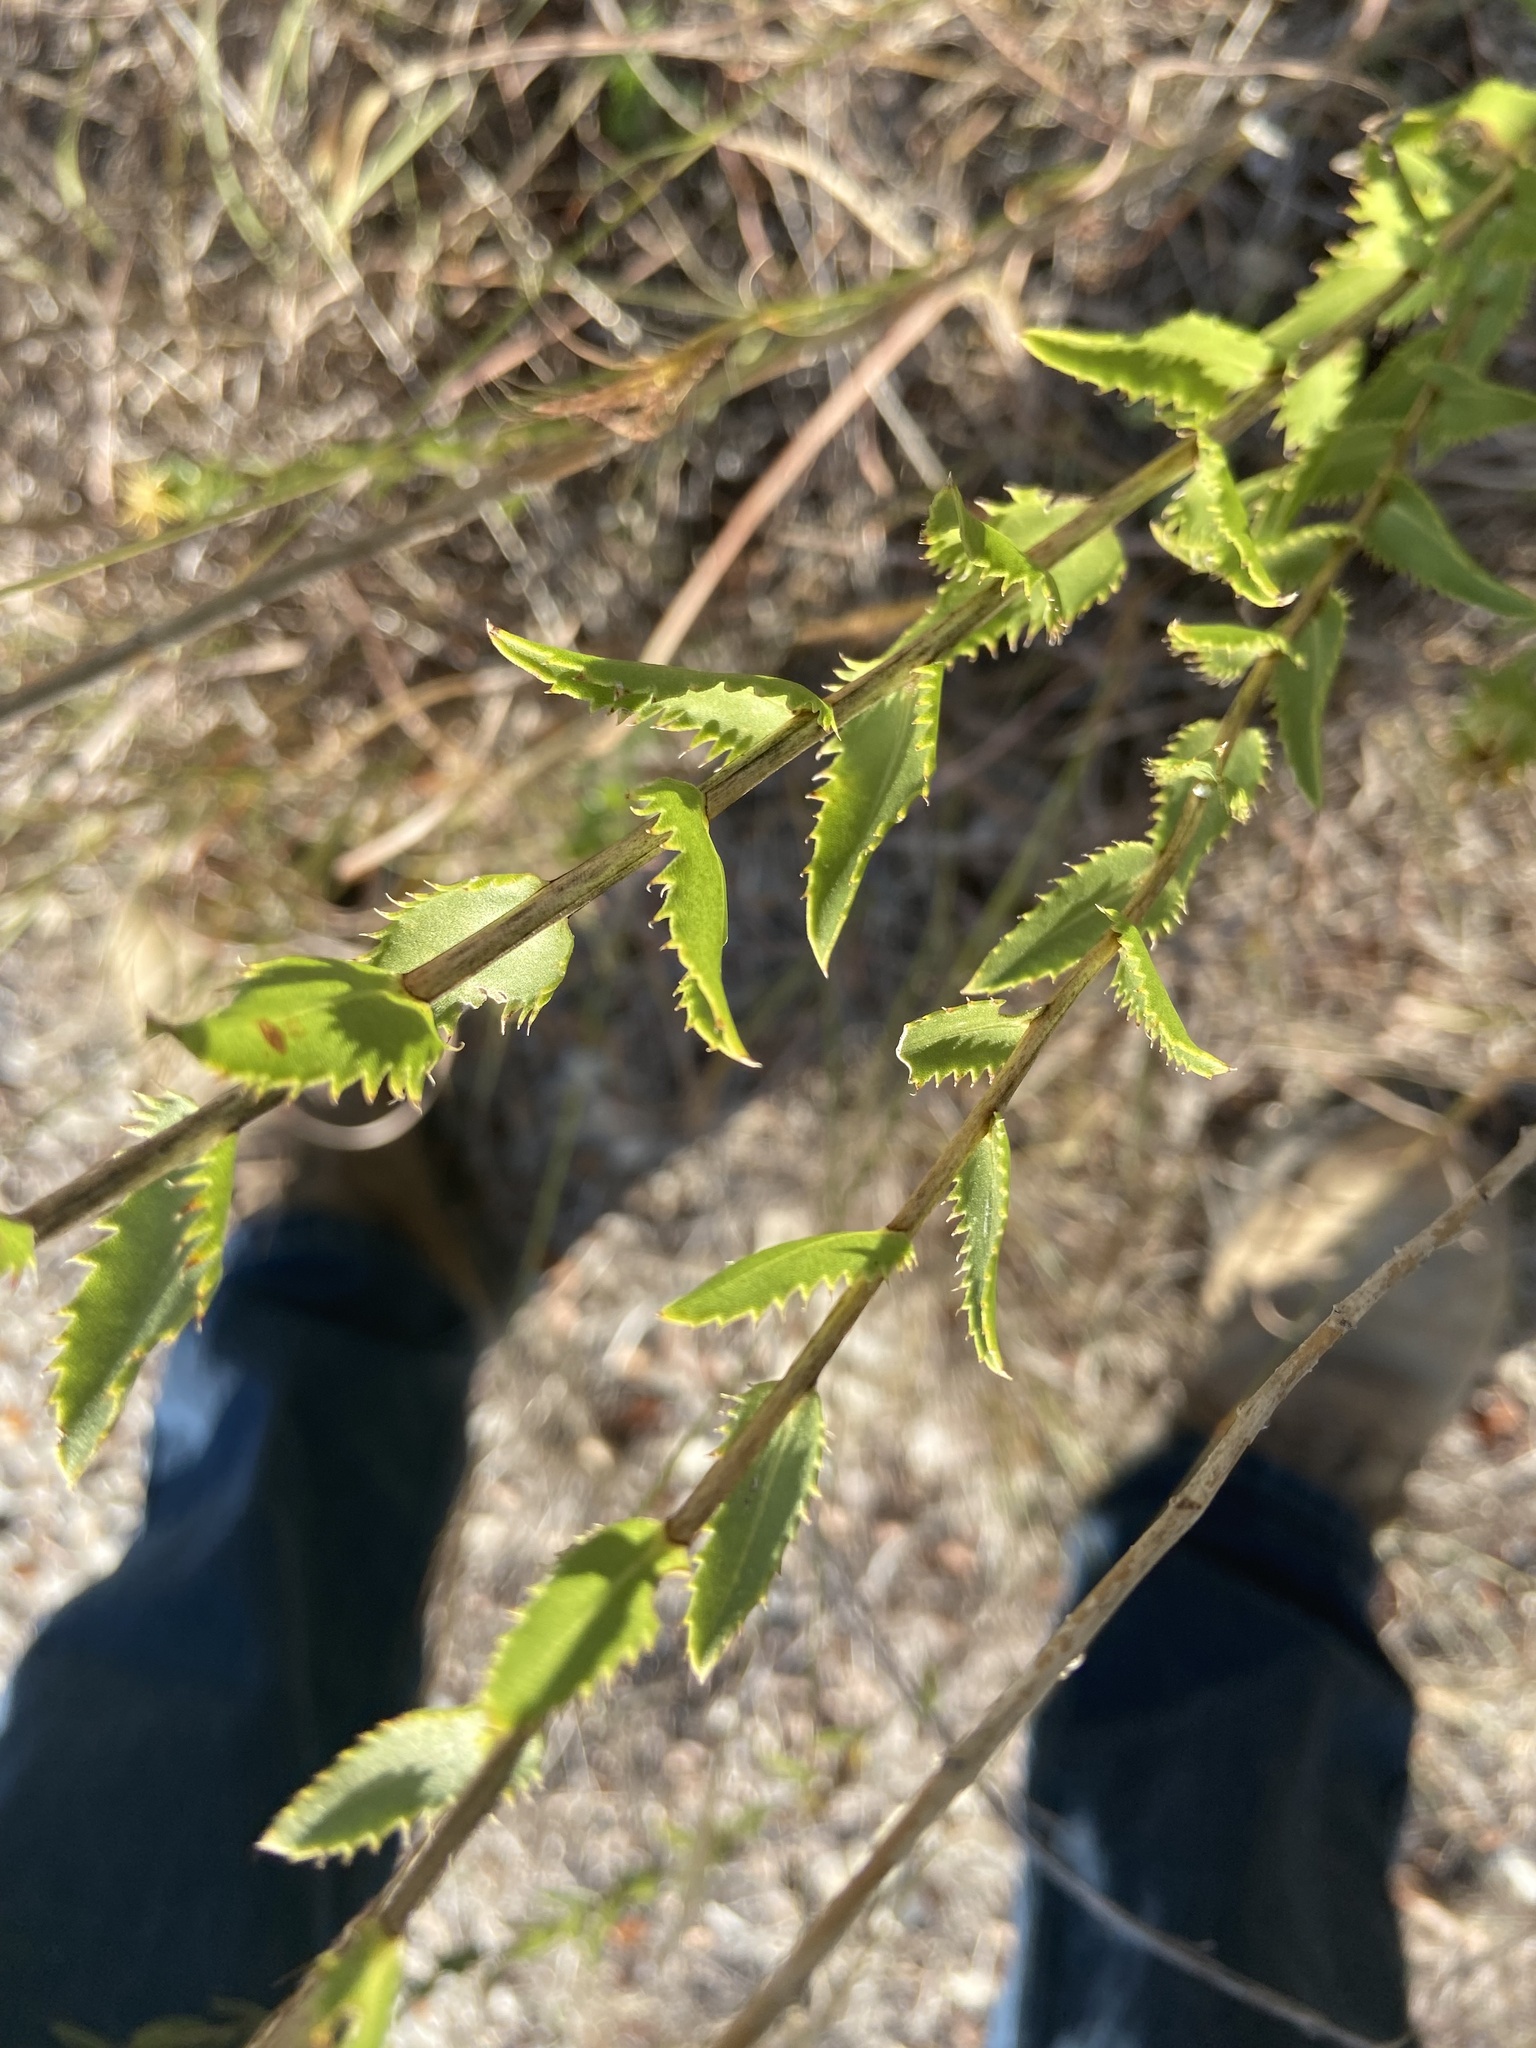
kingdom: Plantae
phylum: Tracheophyta
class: Magnoliopsida
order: Asterales
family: Asteraceae
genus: Grindelia
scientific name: Grindelia lanceolata
